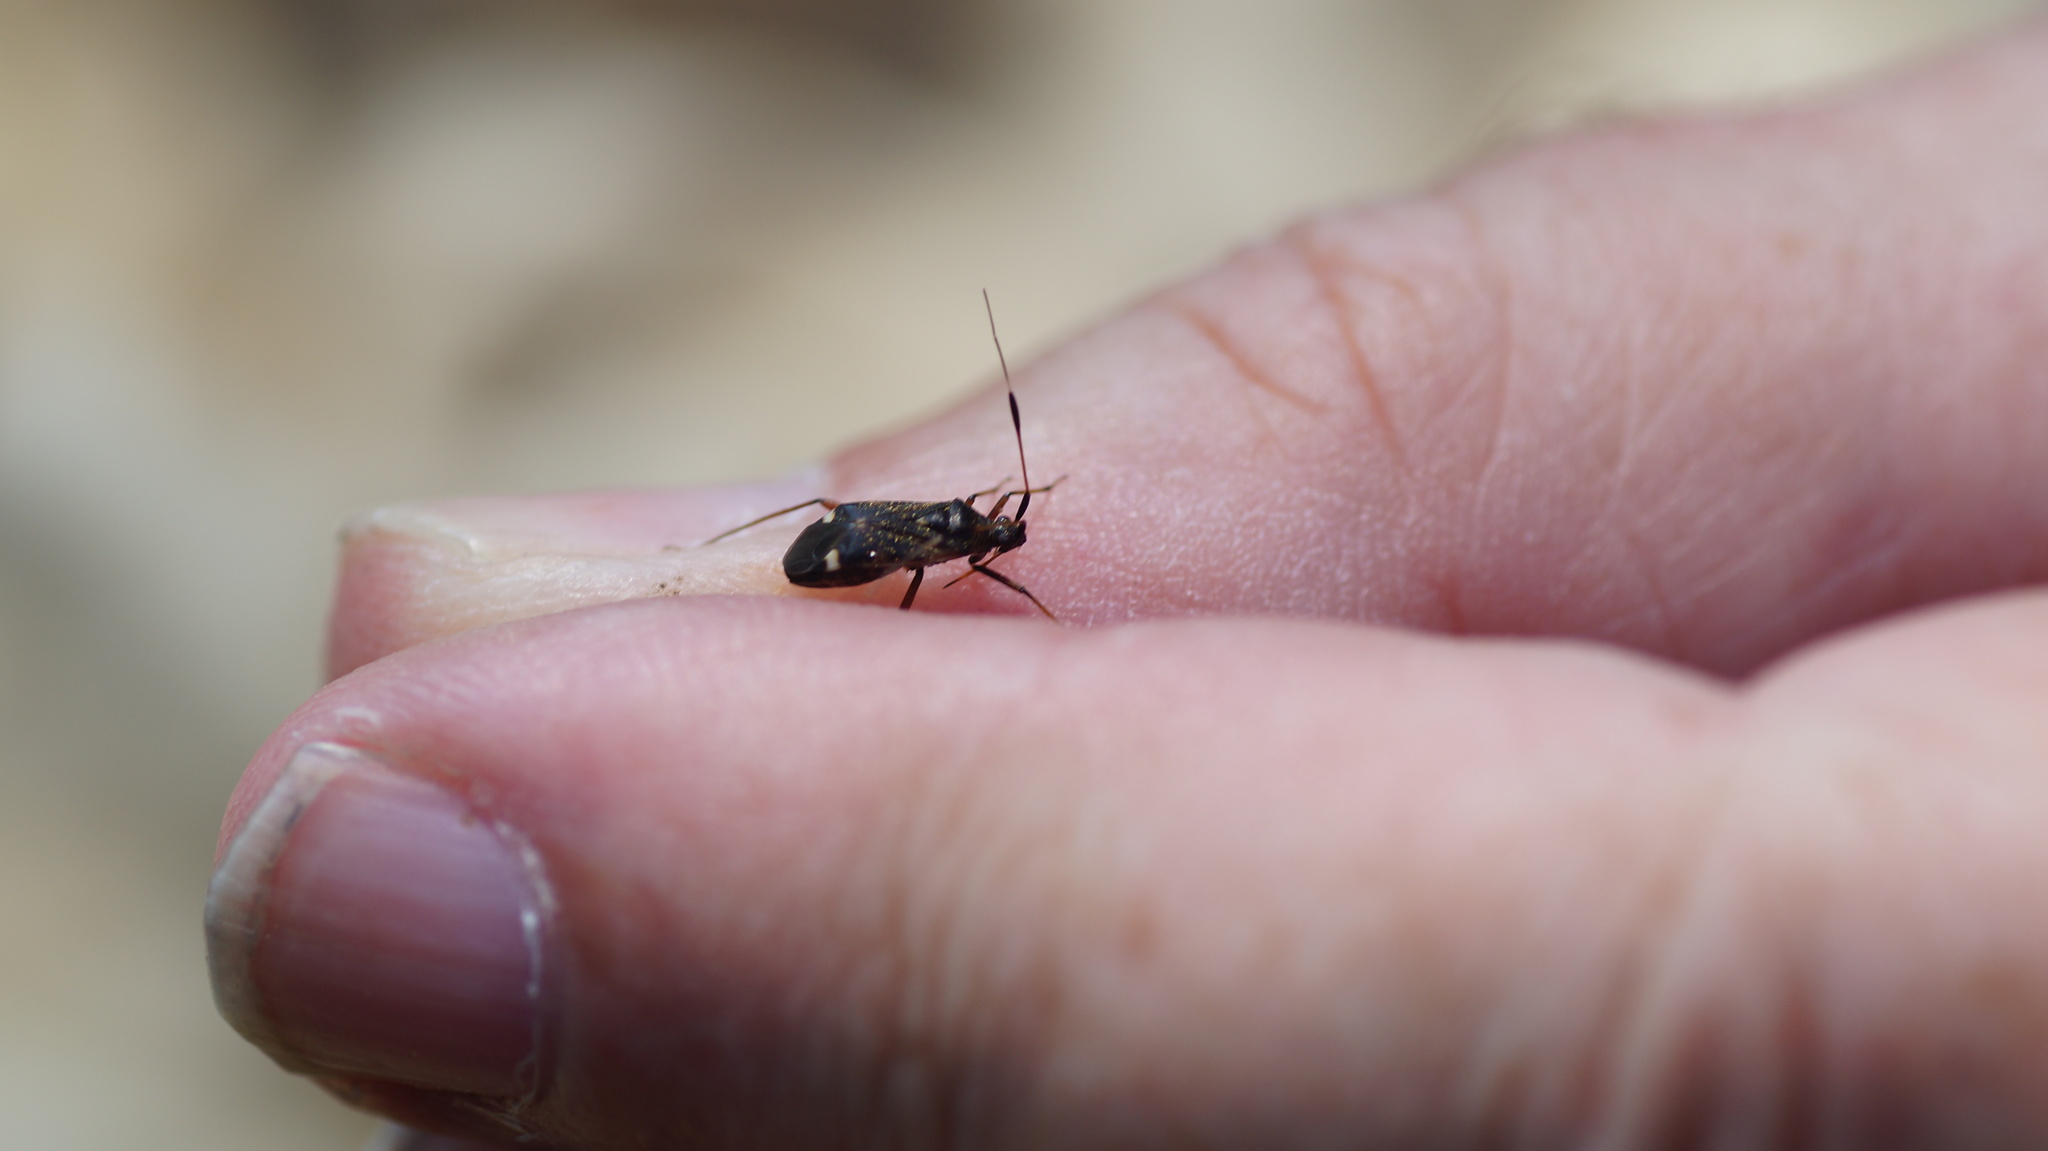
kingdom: Animalia
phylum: Arthropoda
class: Insecta
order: Hemiptera
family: Miridae
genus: Closterotomus
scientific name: Closterotomus biclavatus
